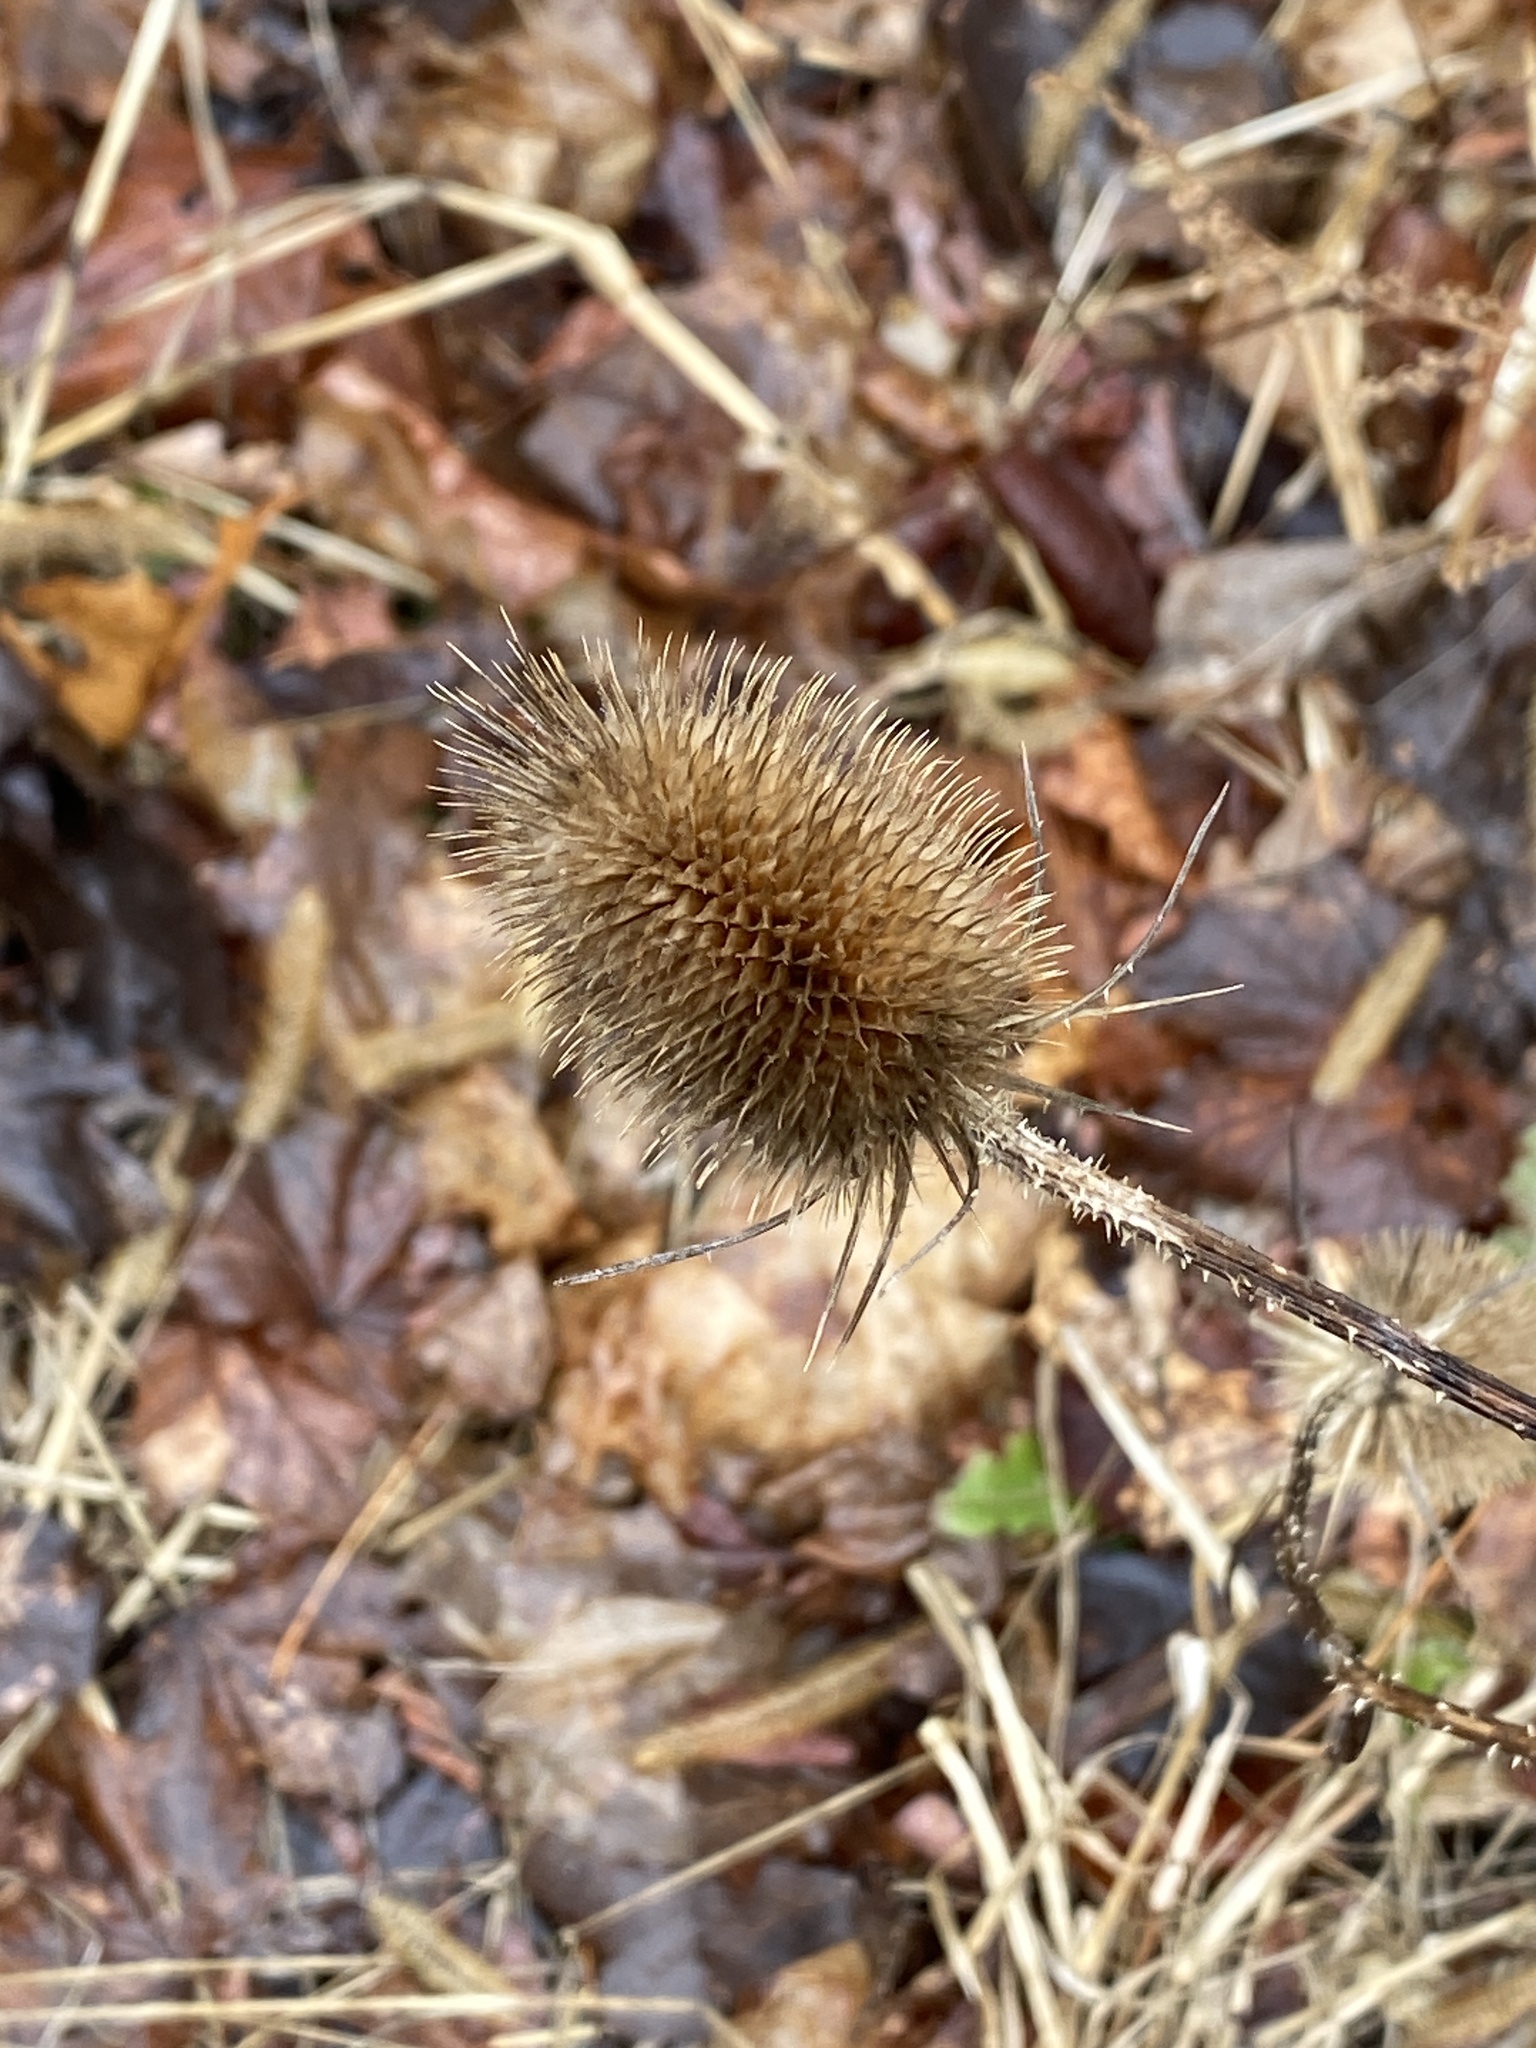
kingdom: Plantae
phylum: Tracheophyta
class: Magnoliopsida
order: Dipsacales
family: Caprifoliaceae
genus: Dipsacus
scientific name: Dipsacus fullonum
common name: Teasel
